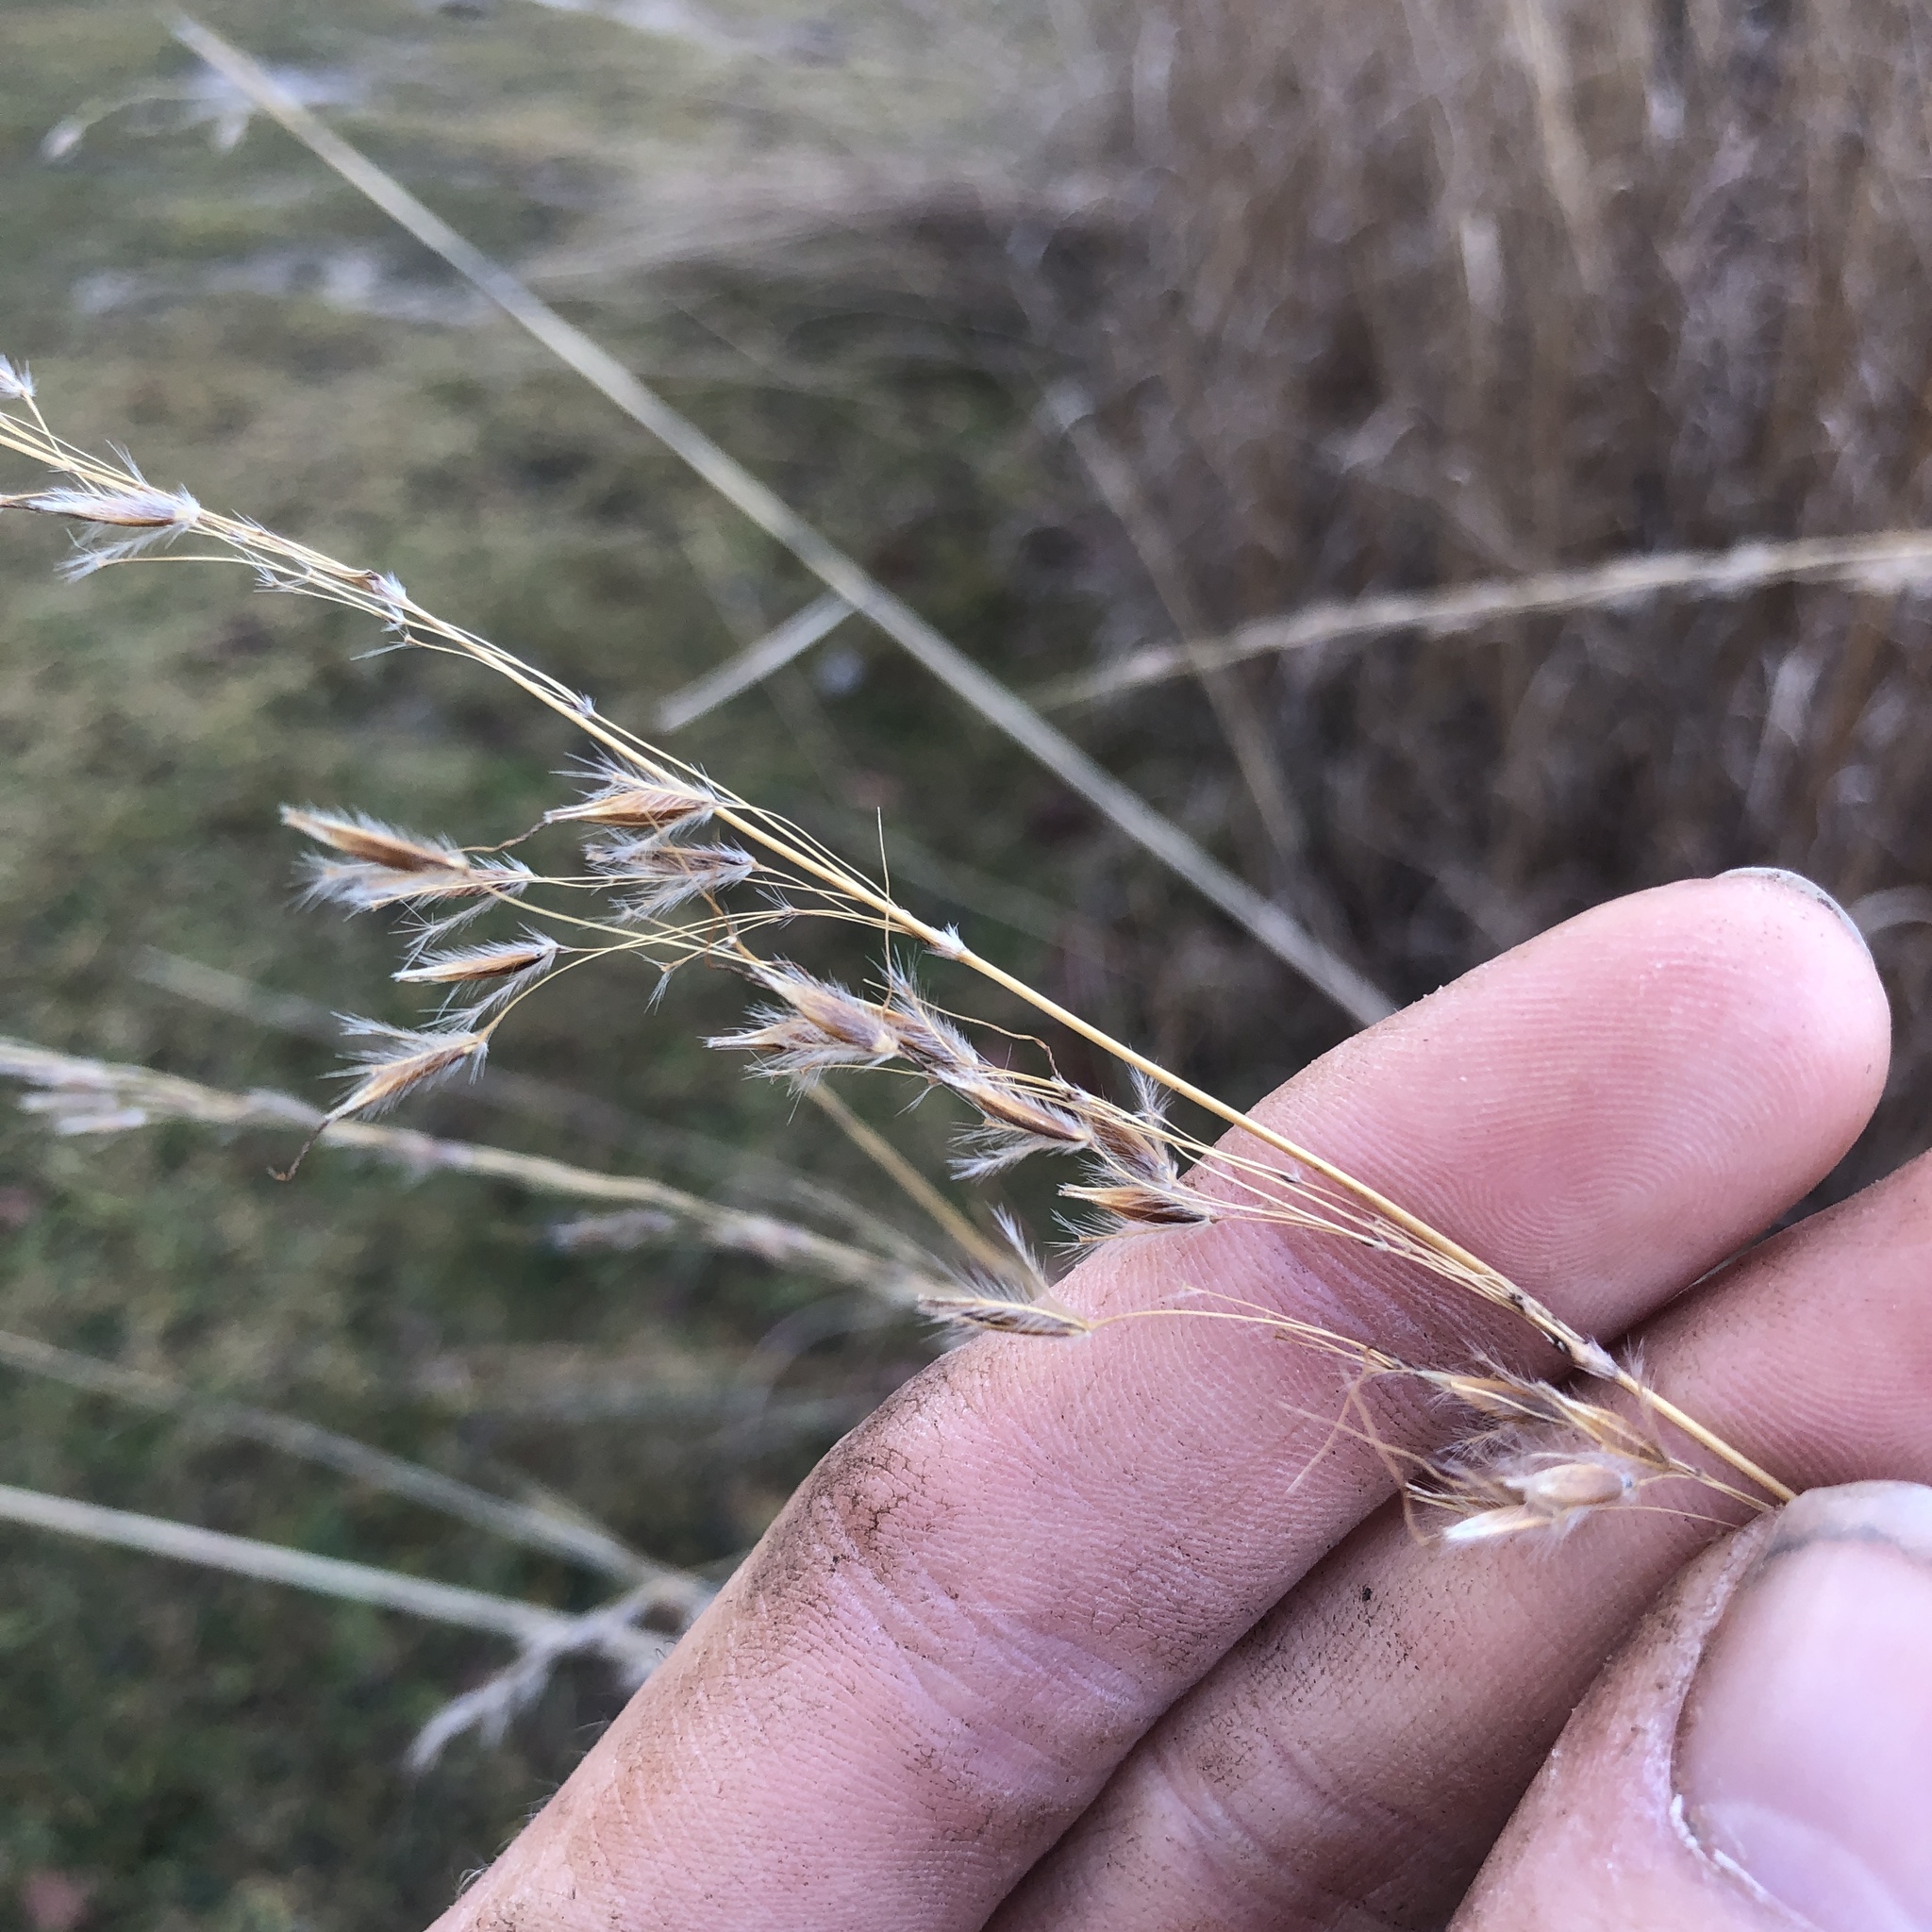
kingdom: Plantae
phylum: Tracheophyta
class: Liliopsida
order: Poales
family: Poaceae
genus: Sorghastrum
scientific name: Sorghastrum nutans
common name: Indian grass
